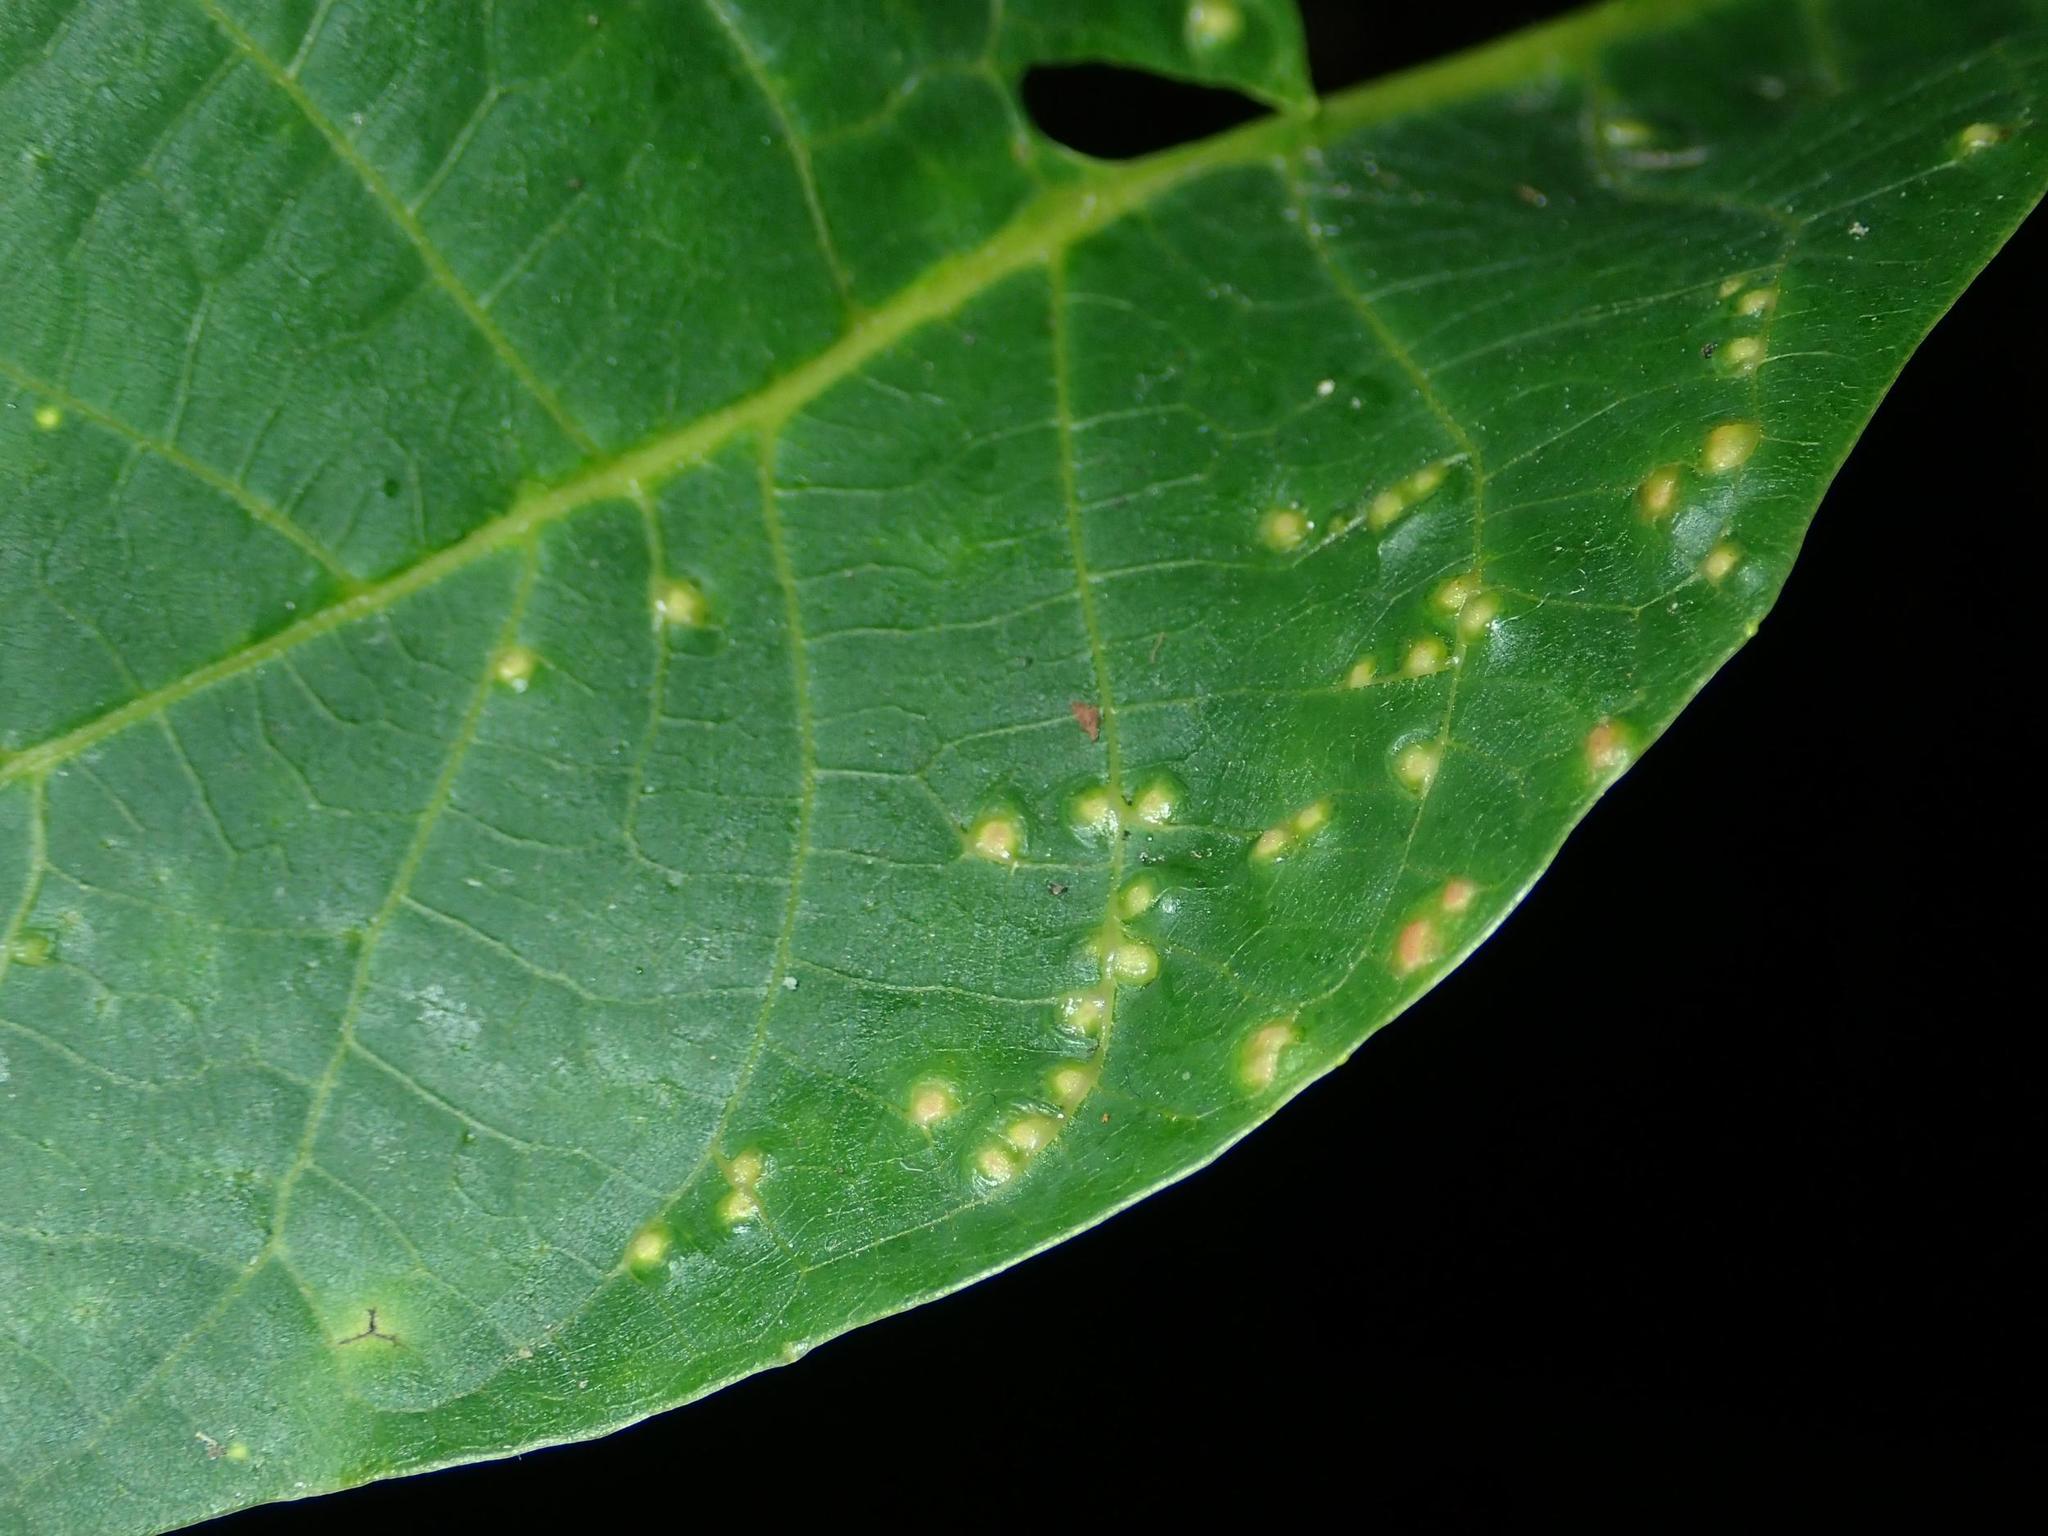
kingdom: Animalia
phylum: Arthropoda
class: Arachnida
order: Trombidiformes
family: Eriophyidae
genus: Aceria
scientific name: Aceria tristriata
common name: Persian walnut leaf blister mite
